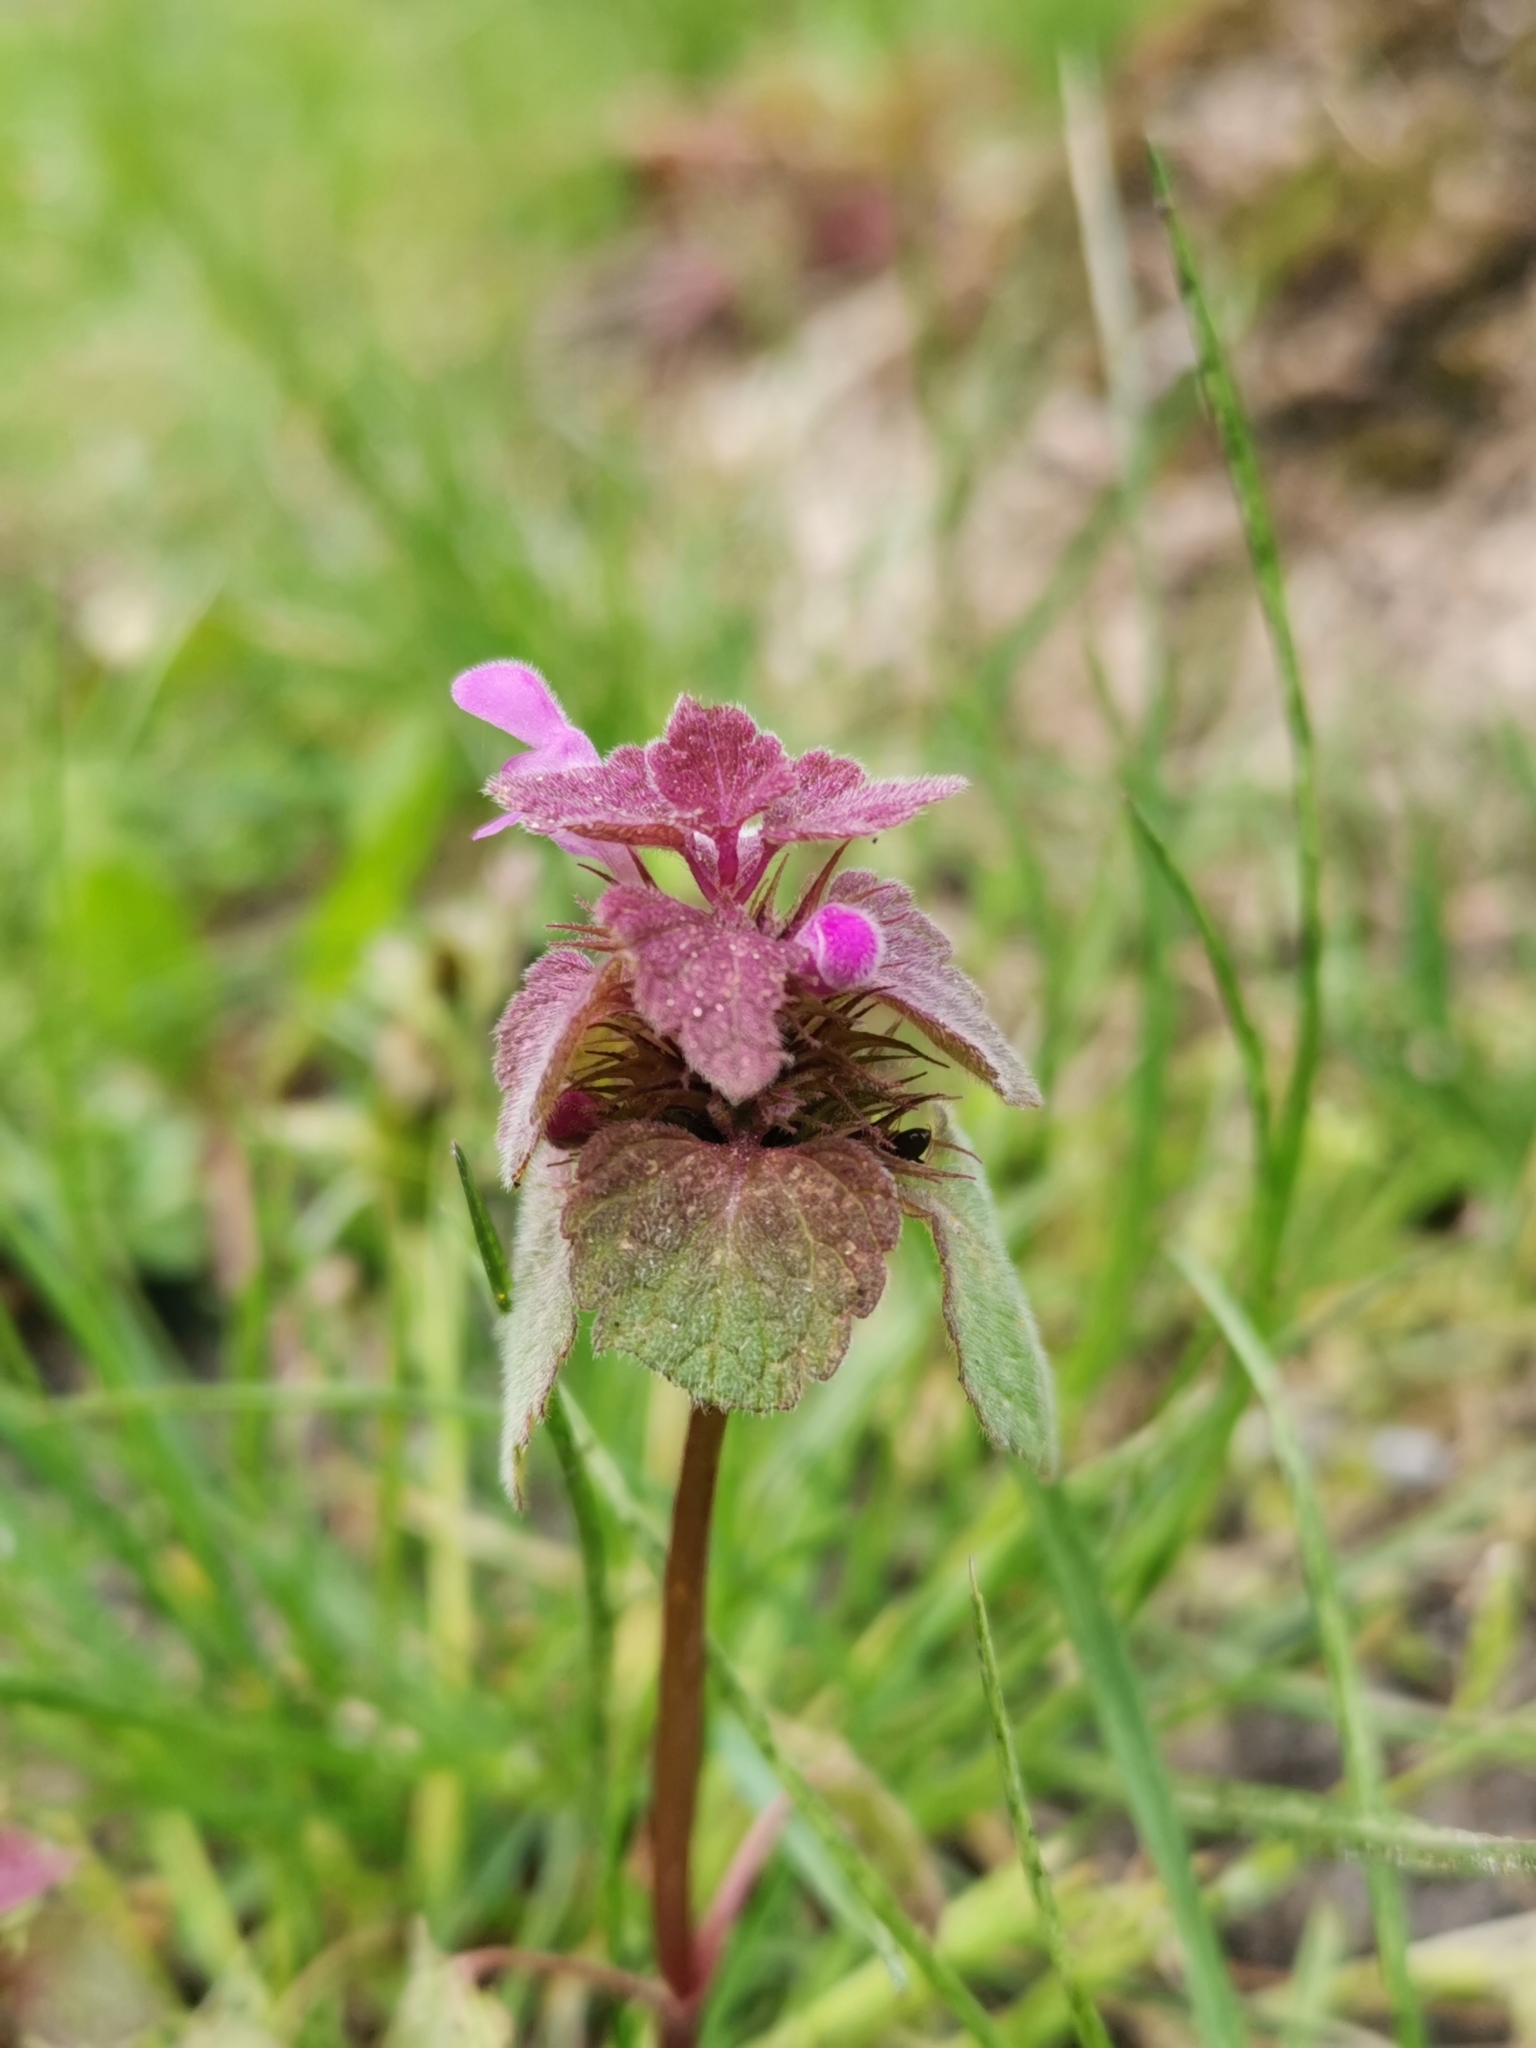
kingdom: Plantae
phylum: Tracheophyta
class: Magnoliopsida
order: Lamiales
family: Lamiaceae
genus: Lamium
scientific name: Lamium purpureum
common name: Red dead-nettle
